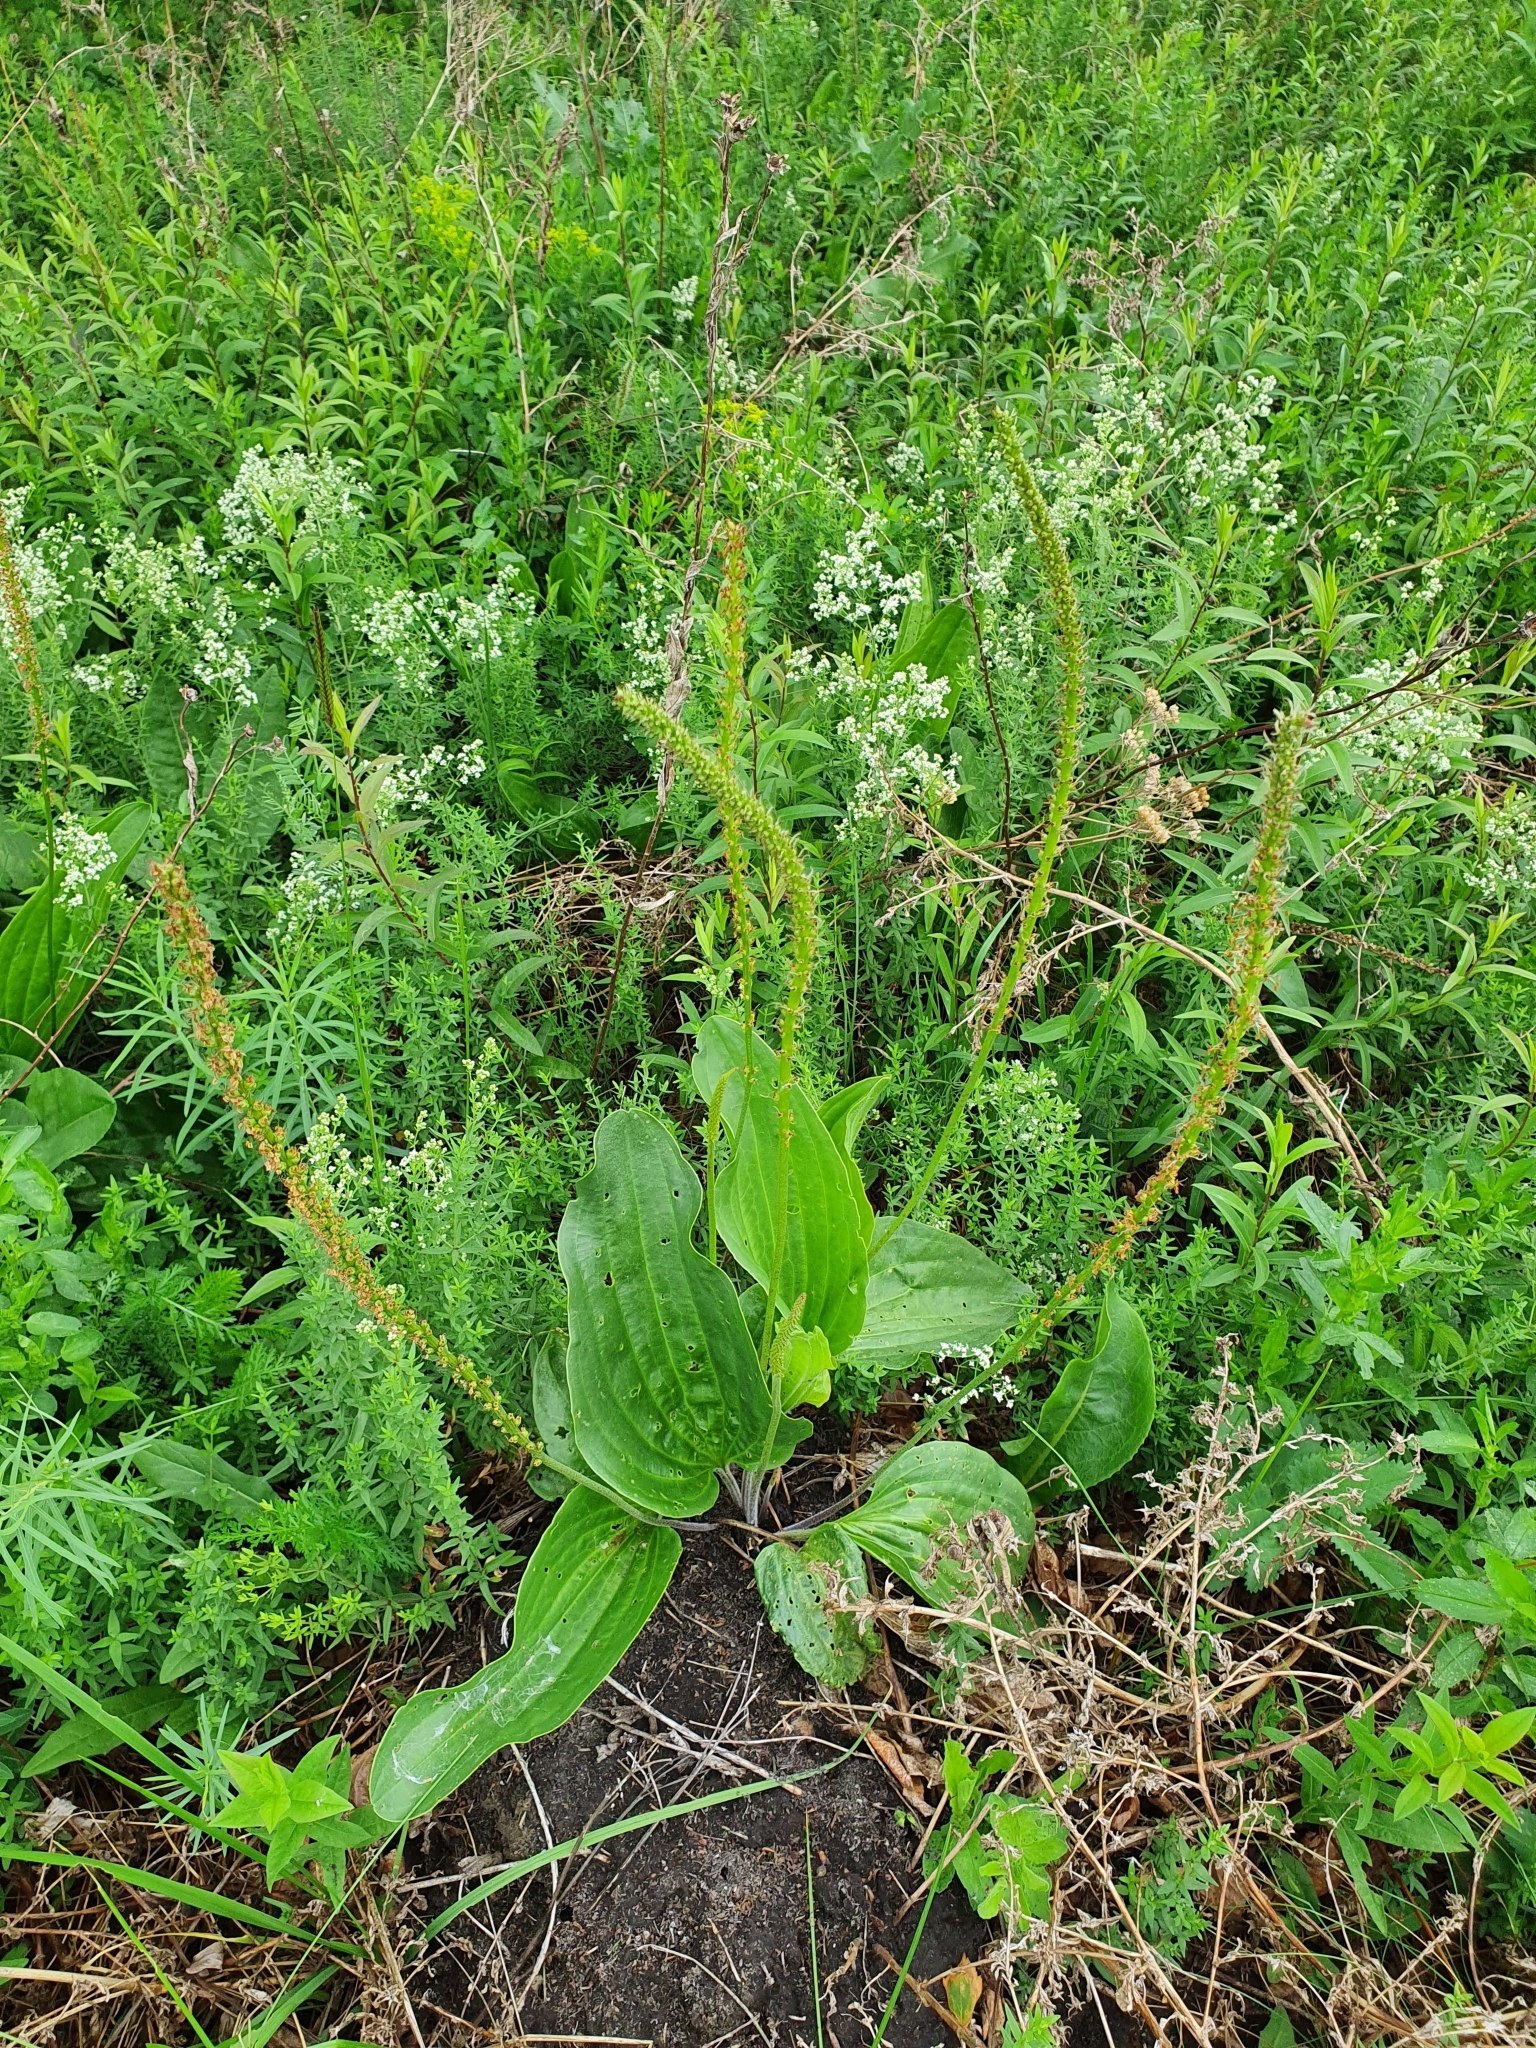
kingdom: Plantae
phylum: Tracheophyta
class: Magnoliopsida
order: Lamiales
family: Plantaginaceae
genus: Plantago
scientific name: Plantago cornuti
